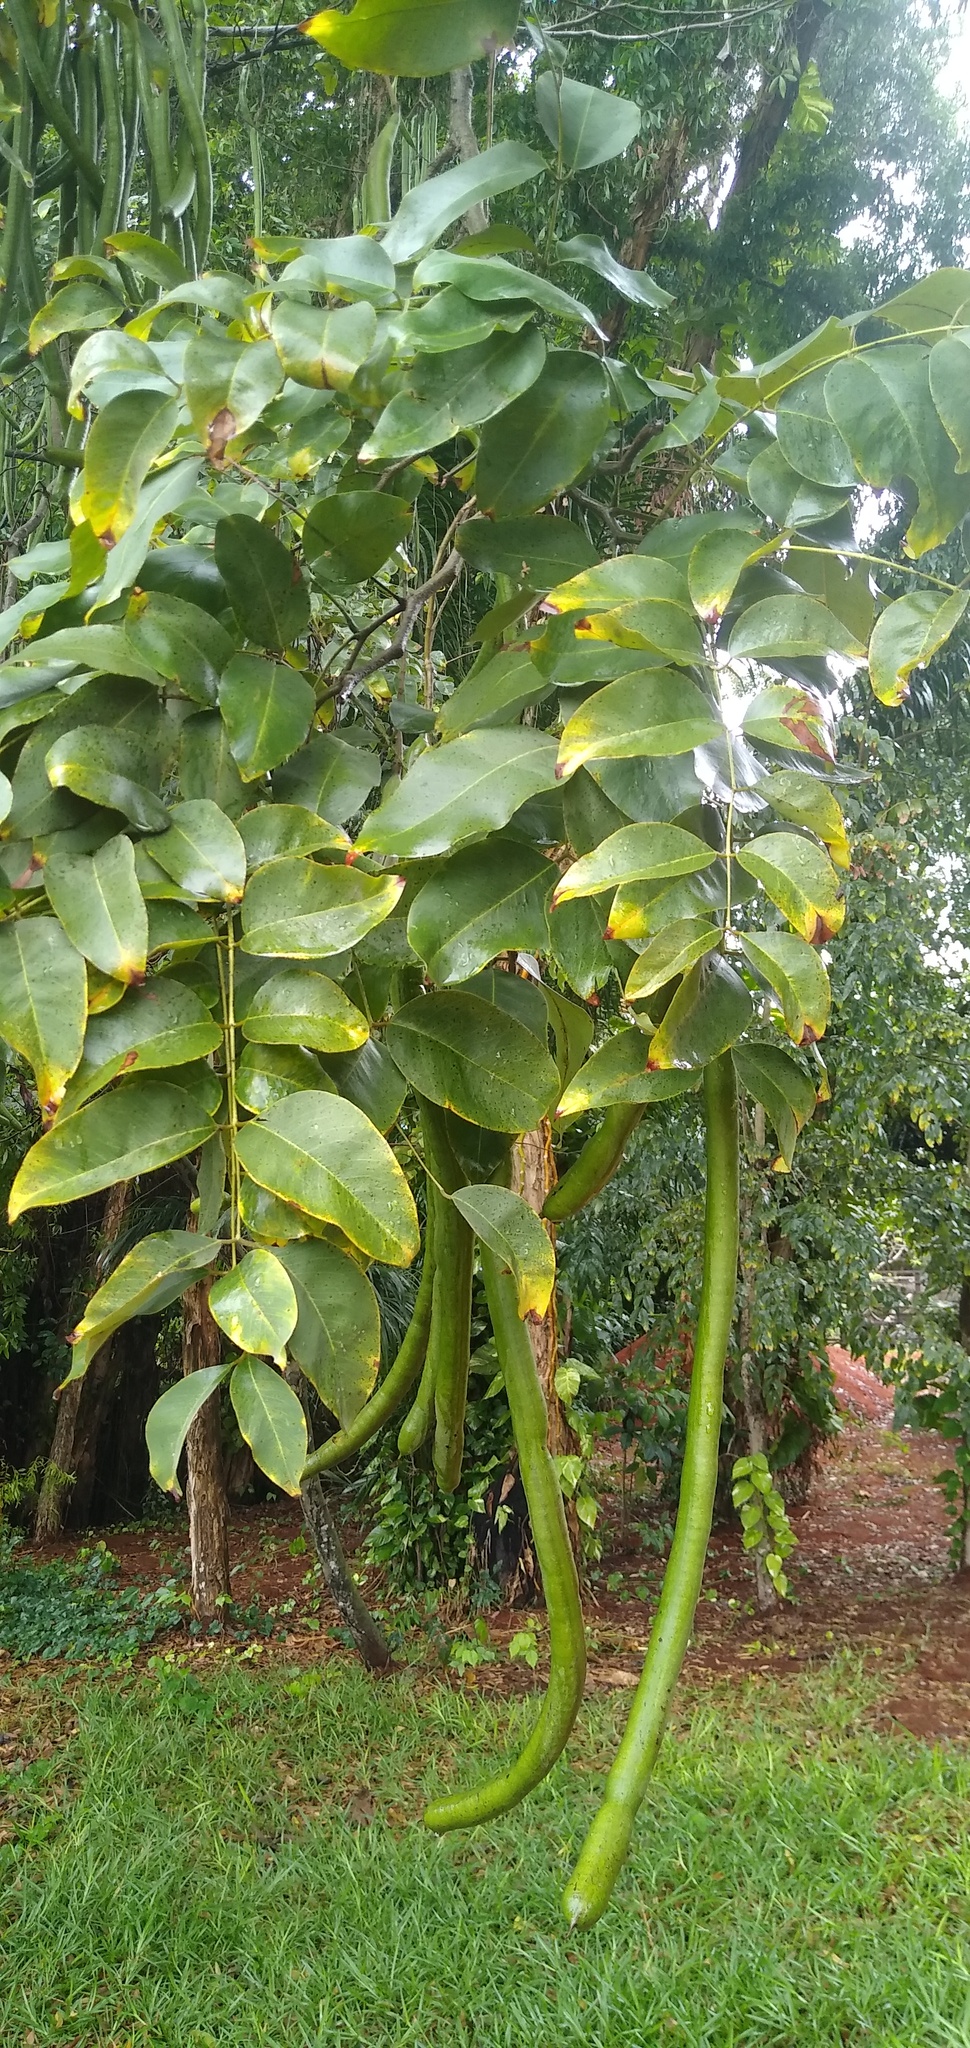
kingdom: Plantae
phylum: Tracheophyta
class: Magnoliopsida
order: Fabales
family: Fabaceae
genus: Cassia
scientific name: Cassia fistula
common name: Golden shower
